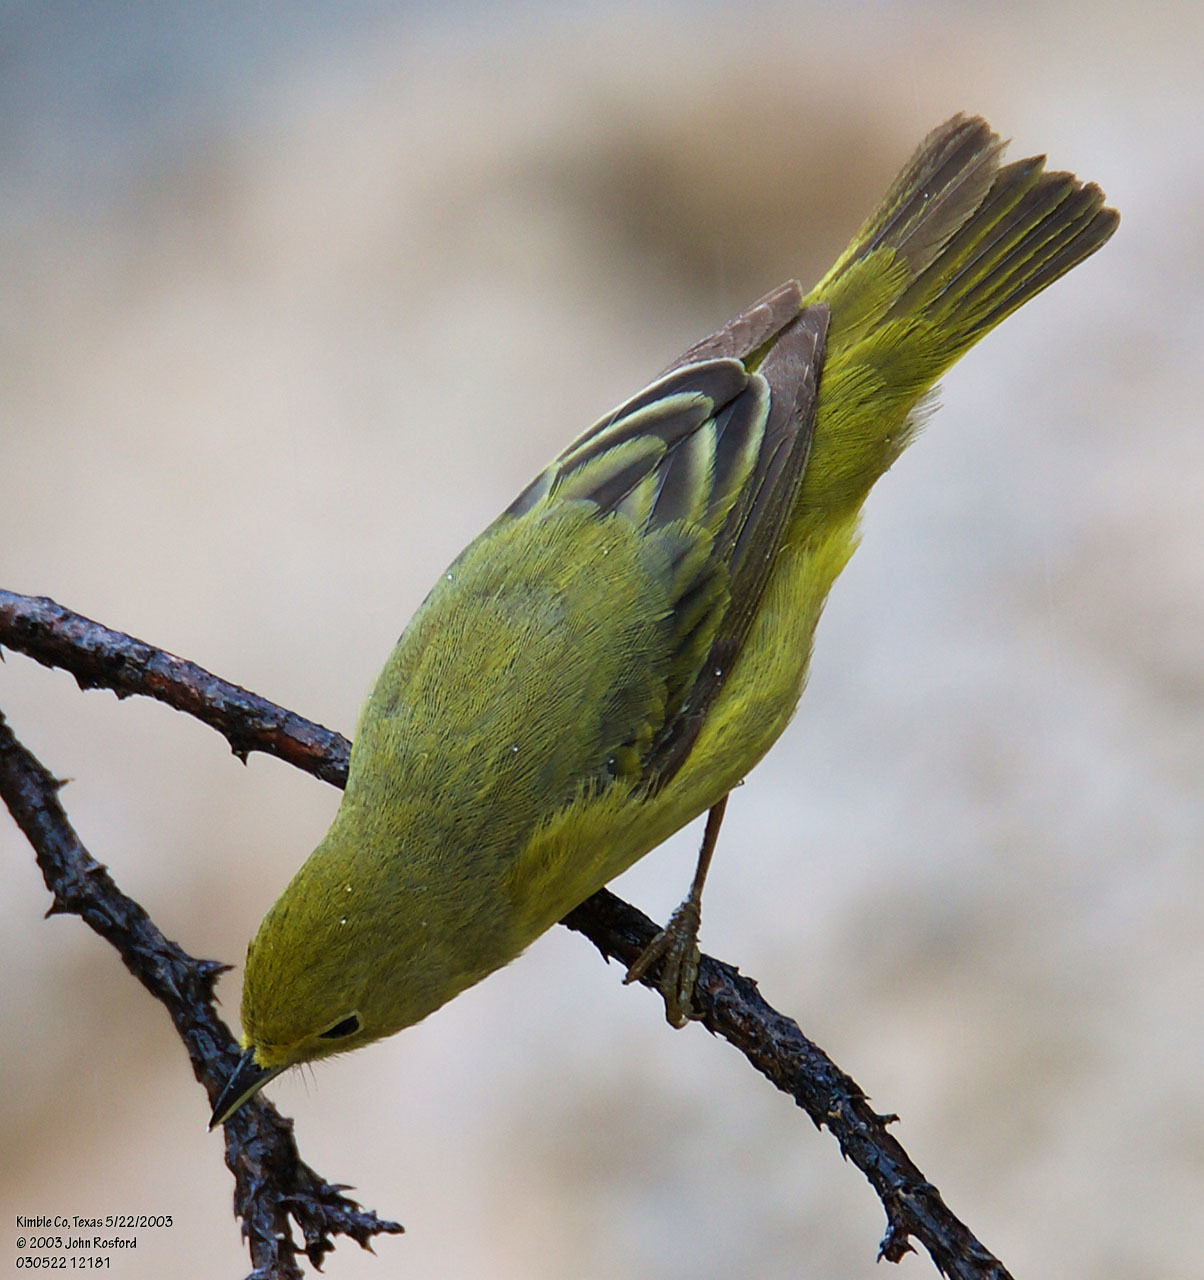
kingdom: Animalia
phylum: Chordata
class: Aves
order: Passeriformes
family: Parulidae
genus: Setophaga
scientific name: Setophaga petechia
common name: Yellow warbler
